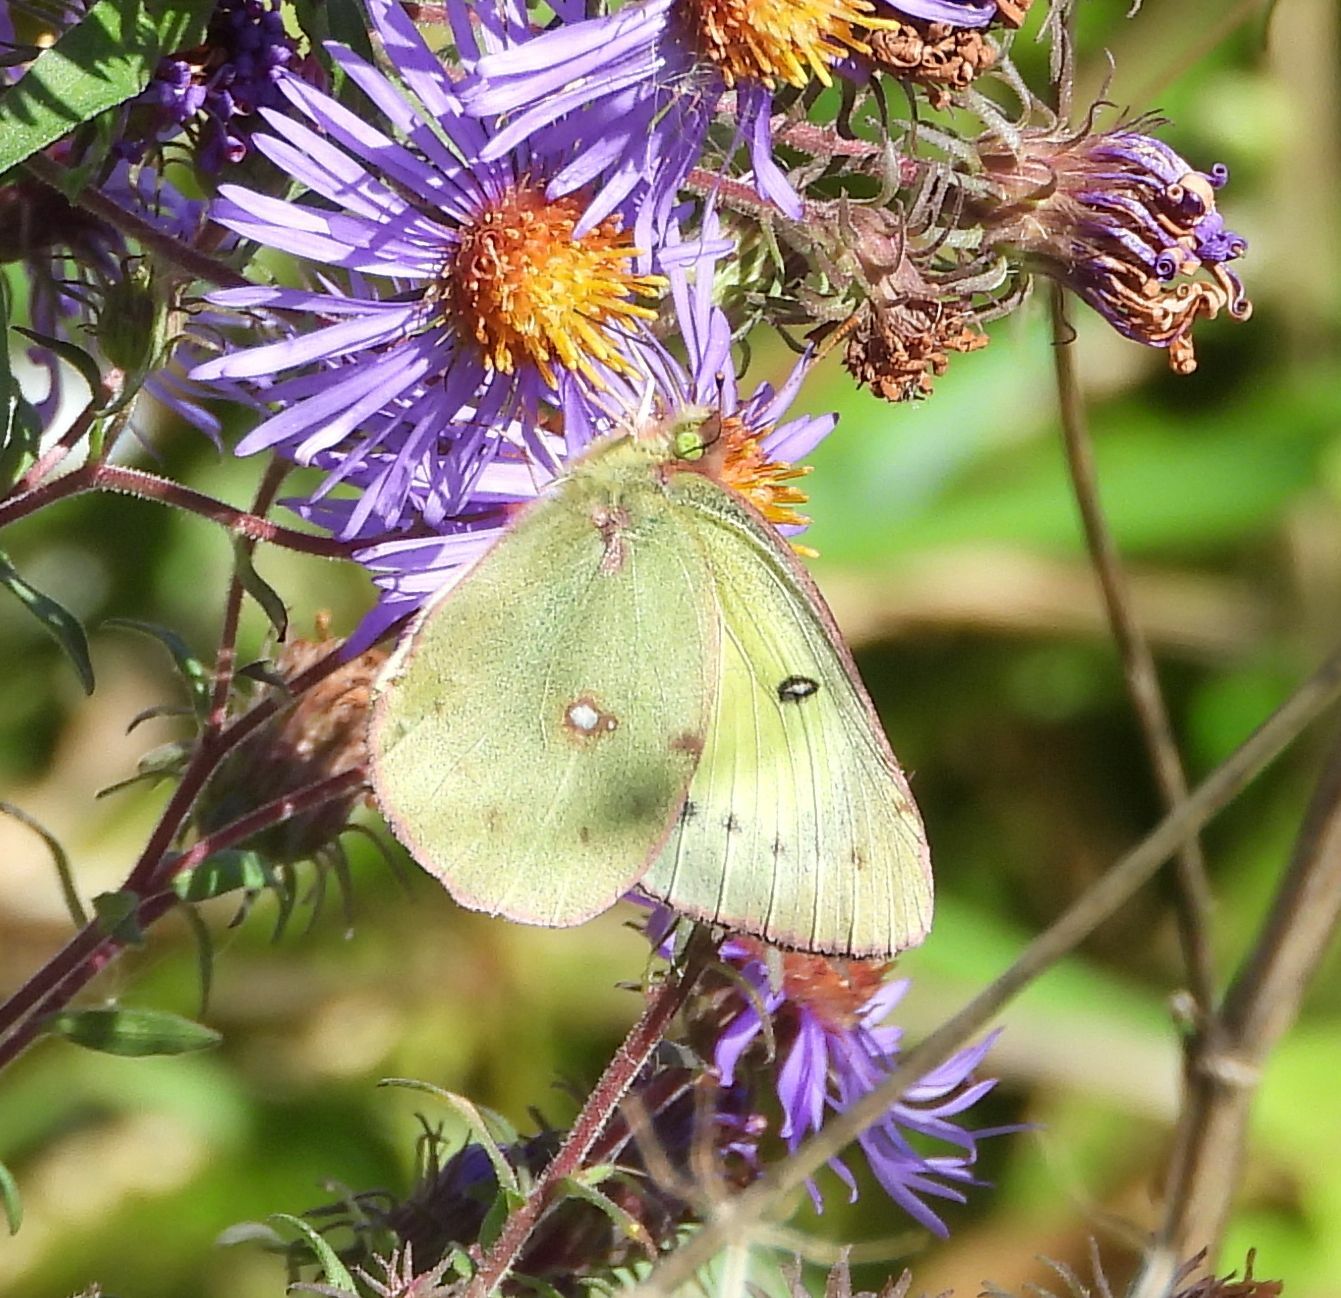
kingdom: Animalia
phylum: Arthropoda
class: Insecta
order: Lepidoptera
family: Pieridae
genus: Colias
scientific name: Colias philodice
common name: Clouded sulphur
